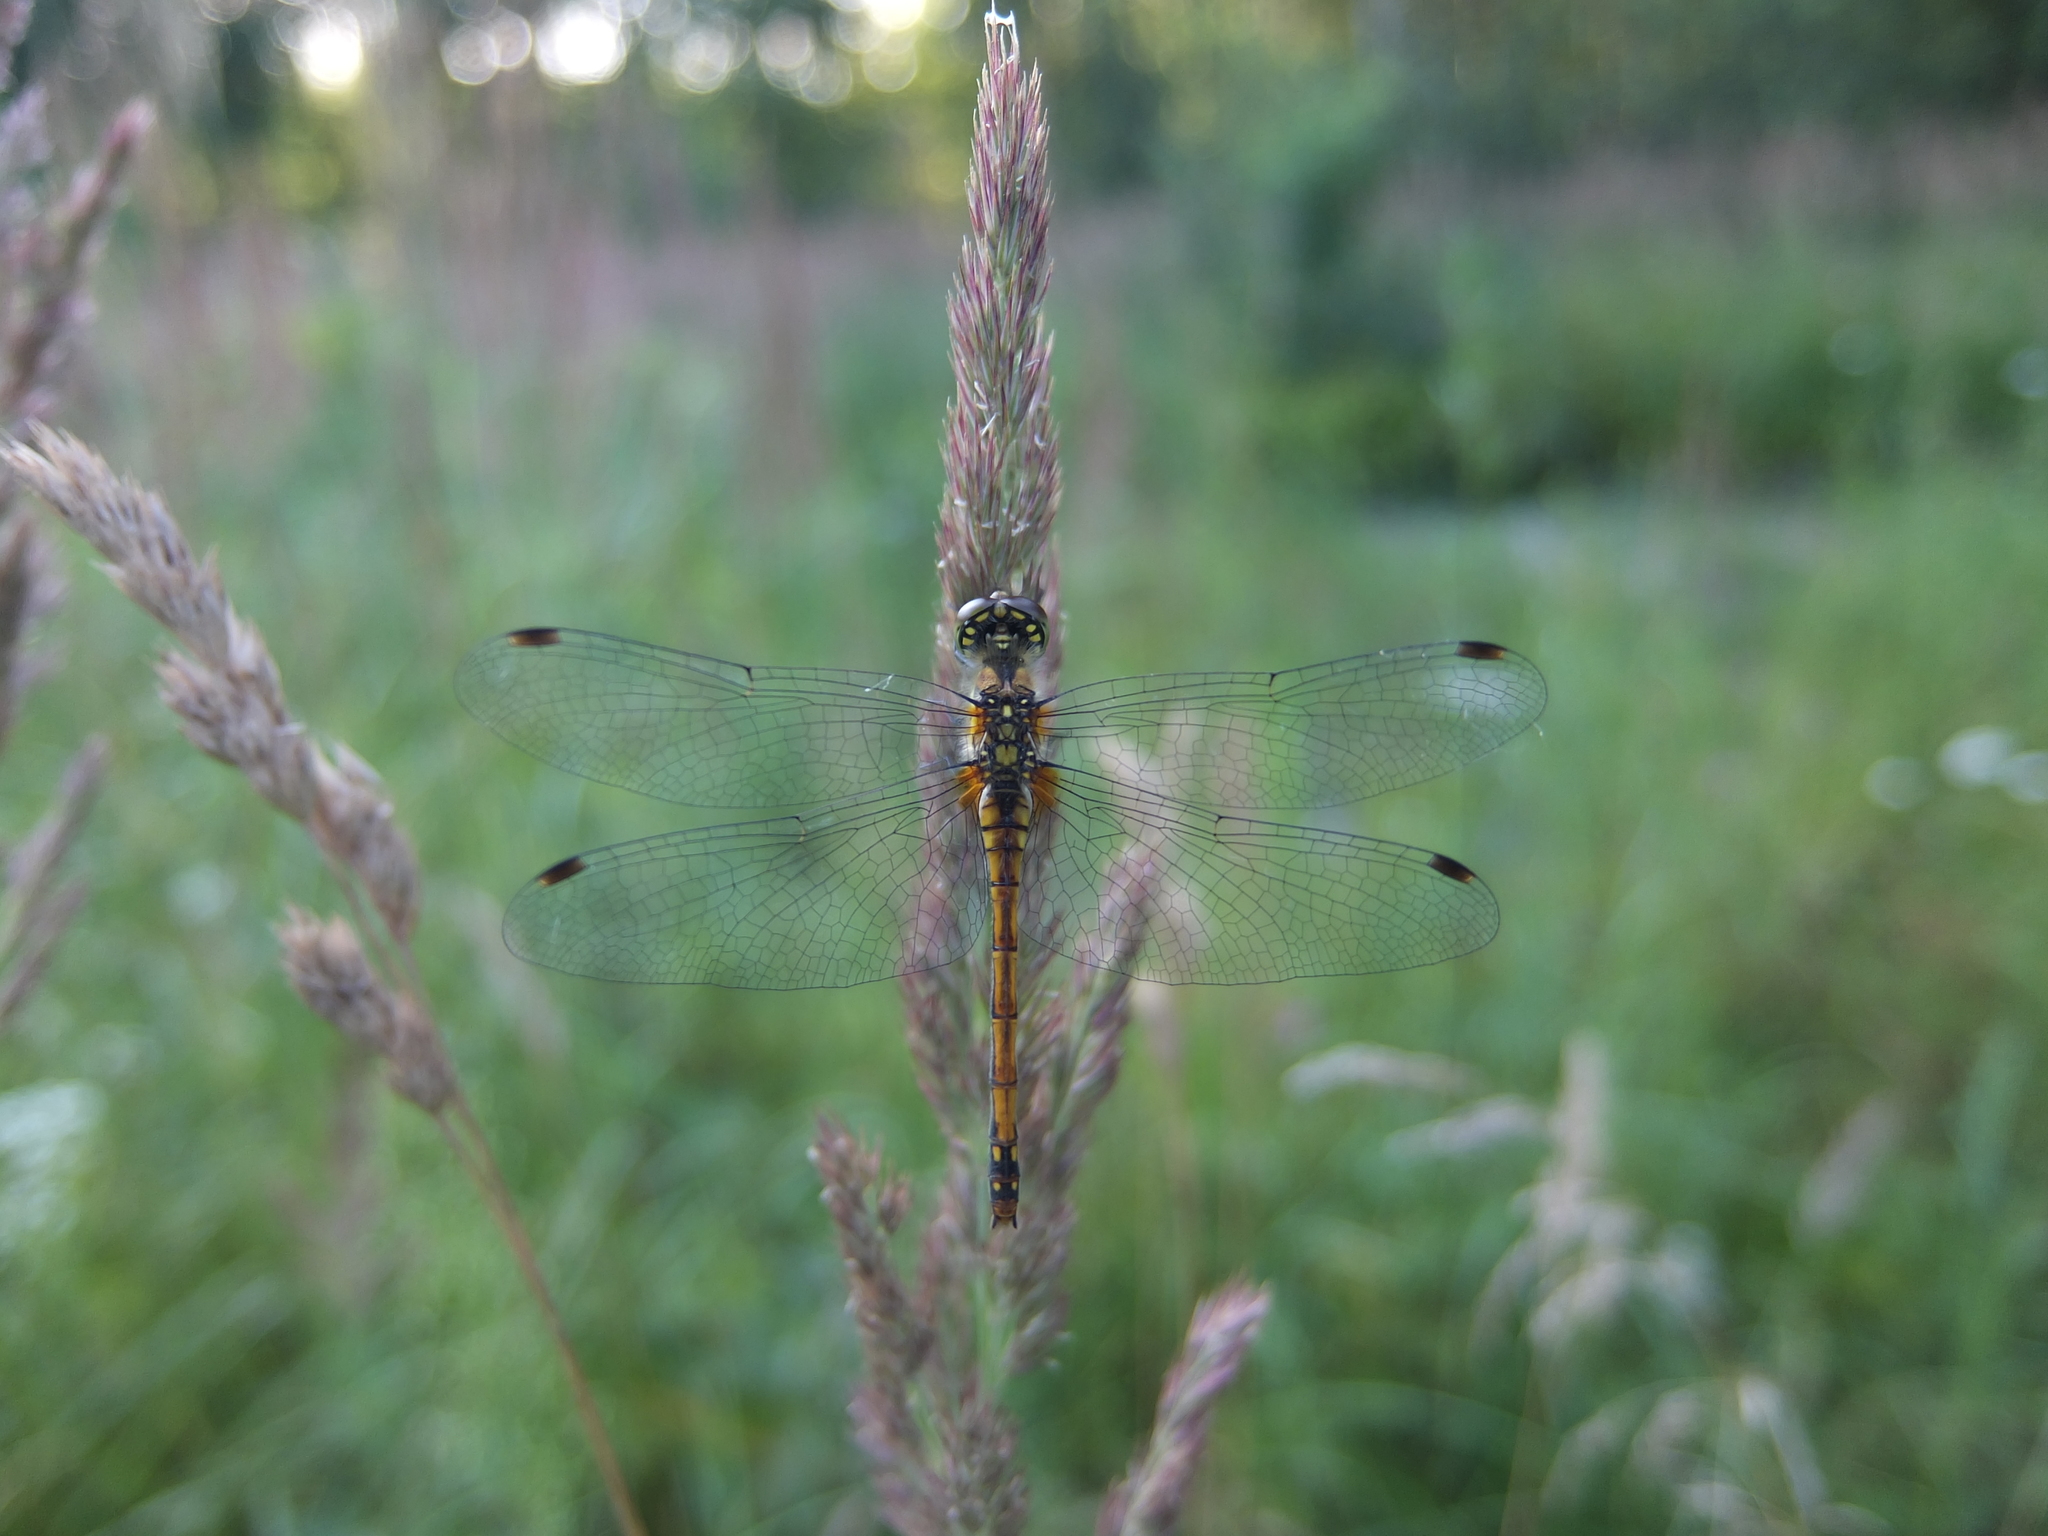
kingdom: Animalia
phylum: Arthropoda
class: Insecta
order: Odonata
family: Libellulidae
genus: Sympetrum
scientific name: Sympetrum danae
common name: Black darter
